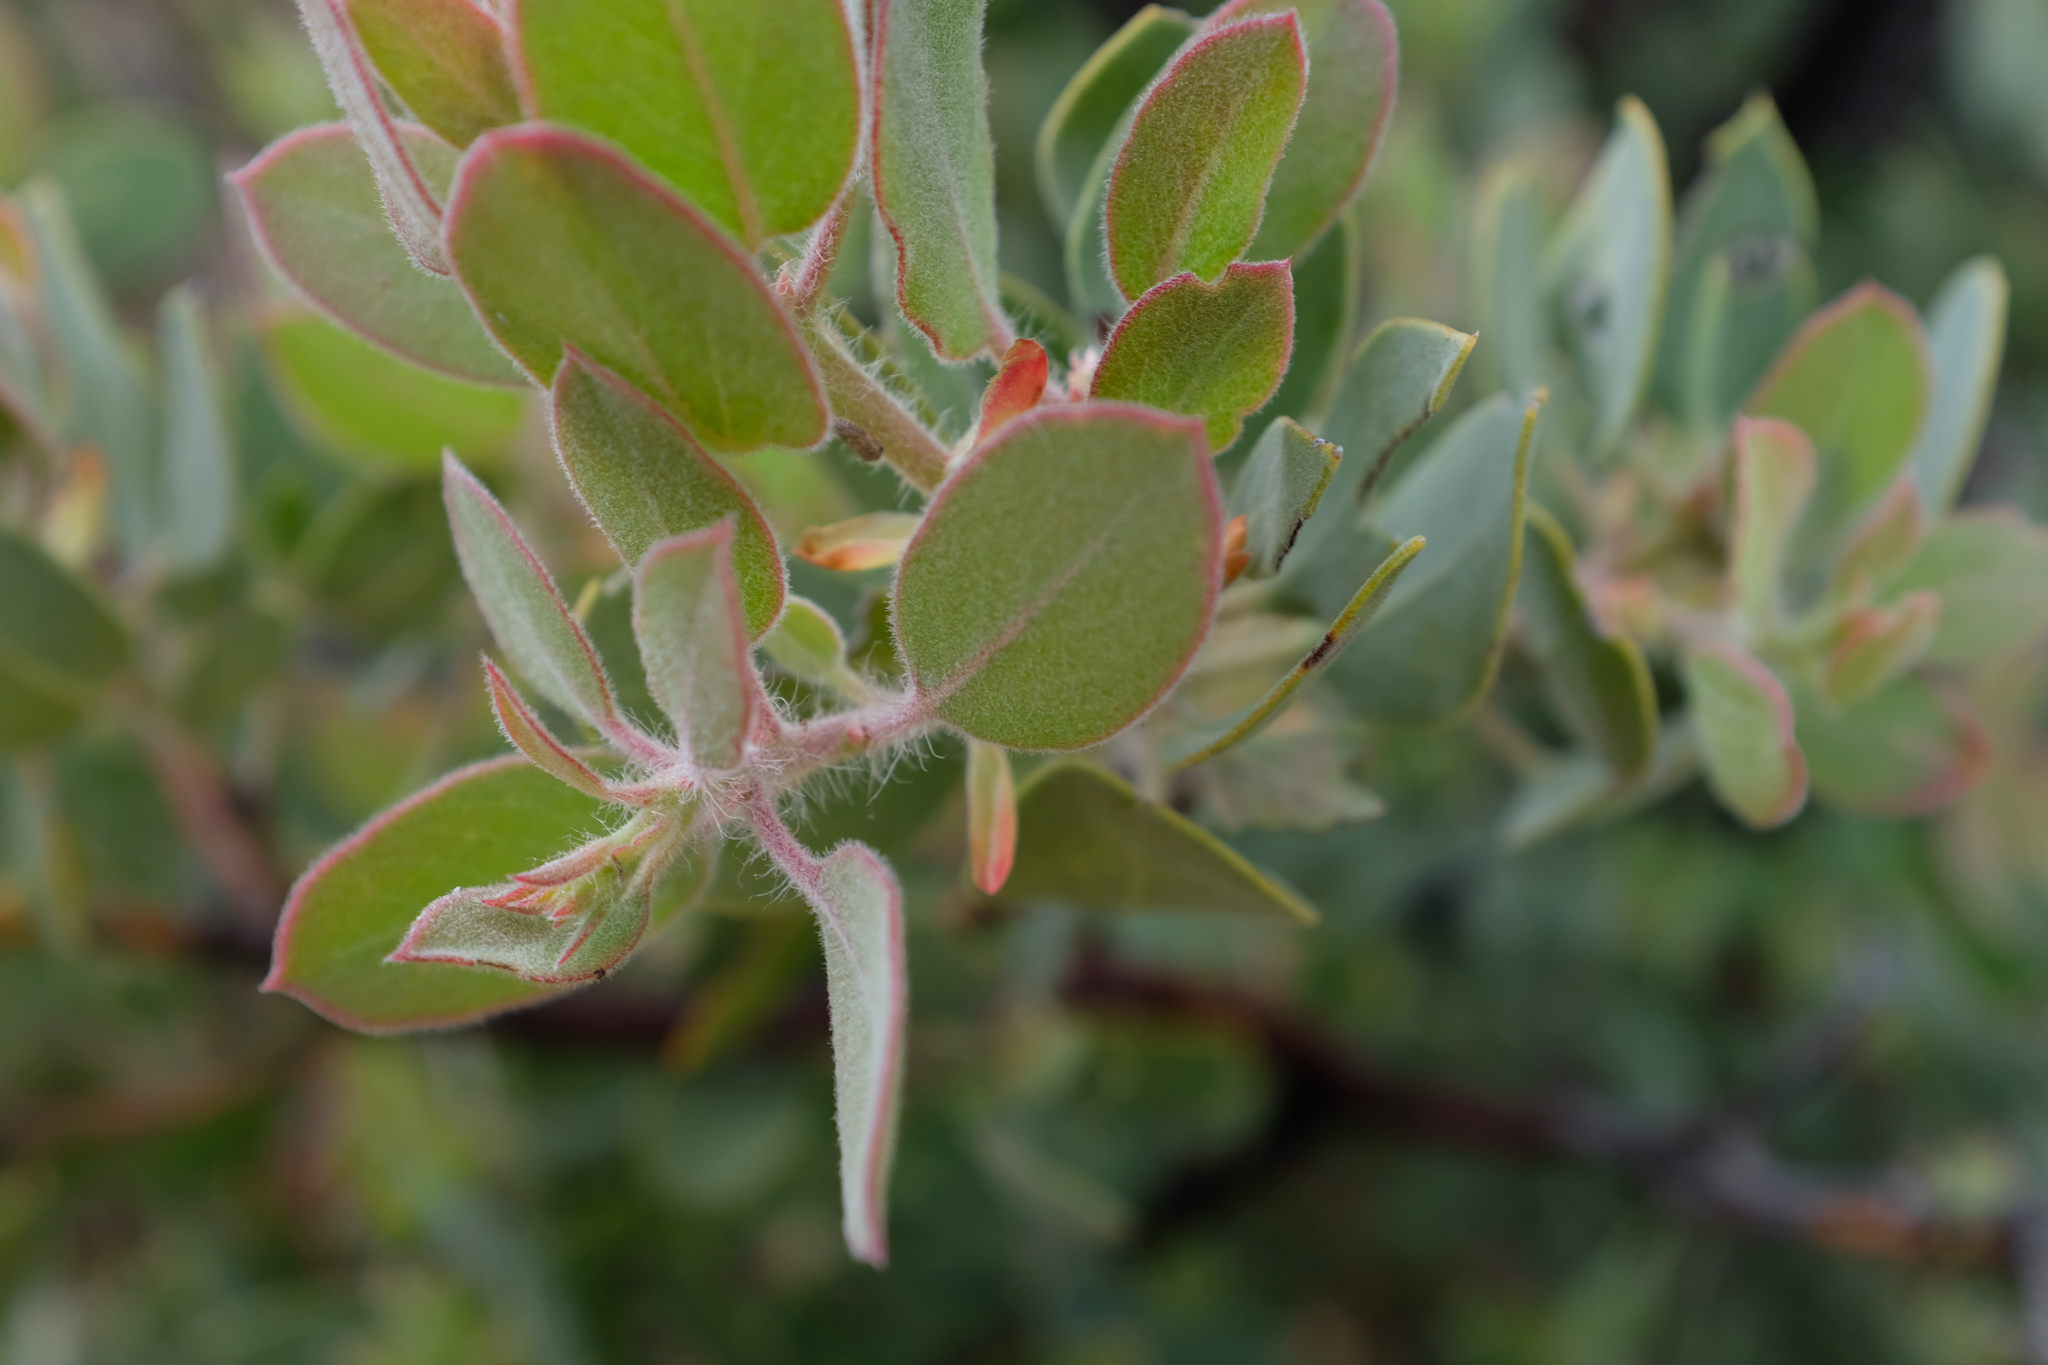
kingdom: Plantae
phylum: Tracheophyta
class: Magnoliopsida
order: Ericales
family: Ericaceae
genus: Arctostaphylos
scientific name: Arctostaphylos pilosula
